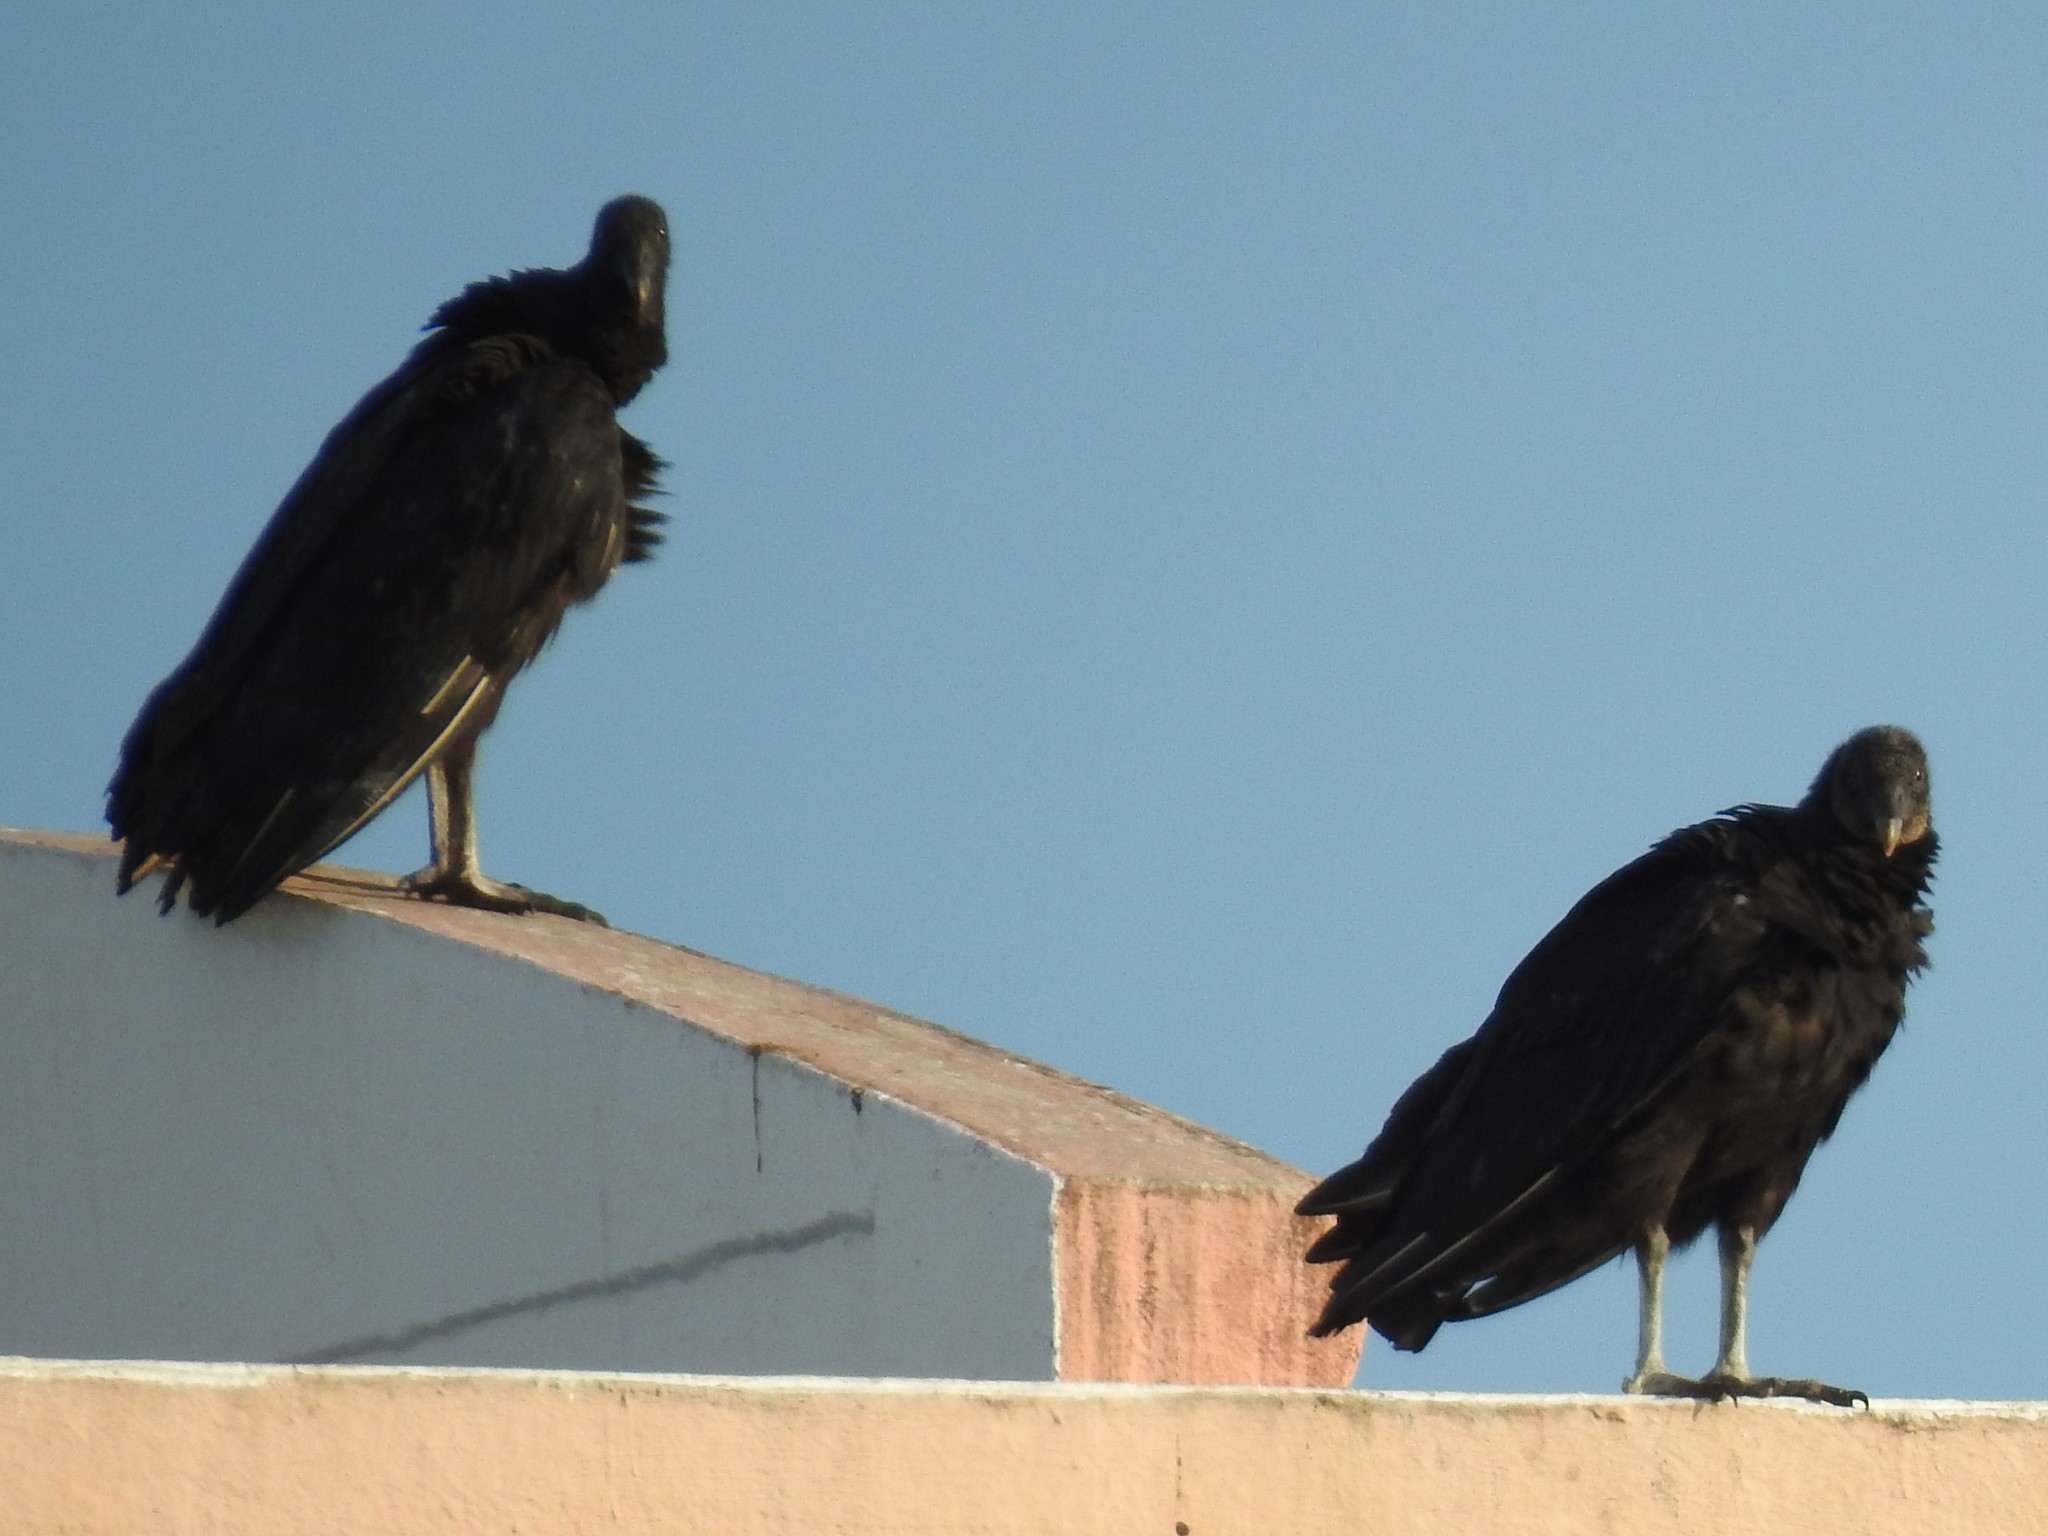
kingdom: Animalia
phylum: Chordata
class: Aves
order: Accipitriformes
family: Cathartidae
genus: Coragyps
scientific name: Coragyps atratus
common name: Black vulture
